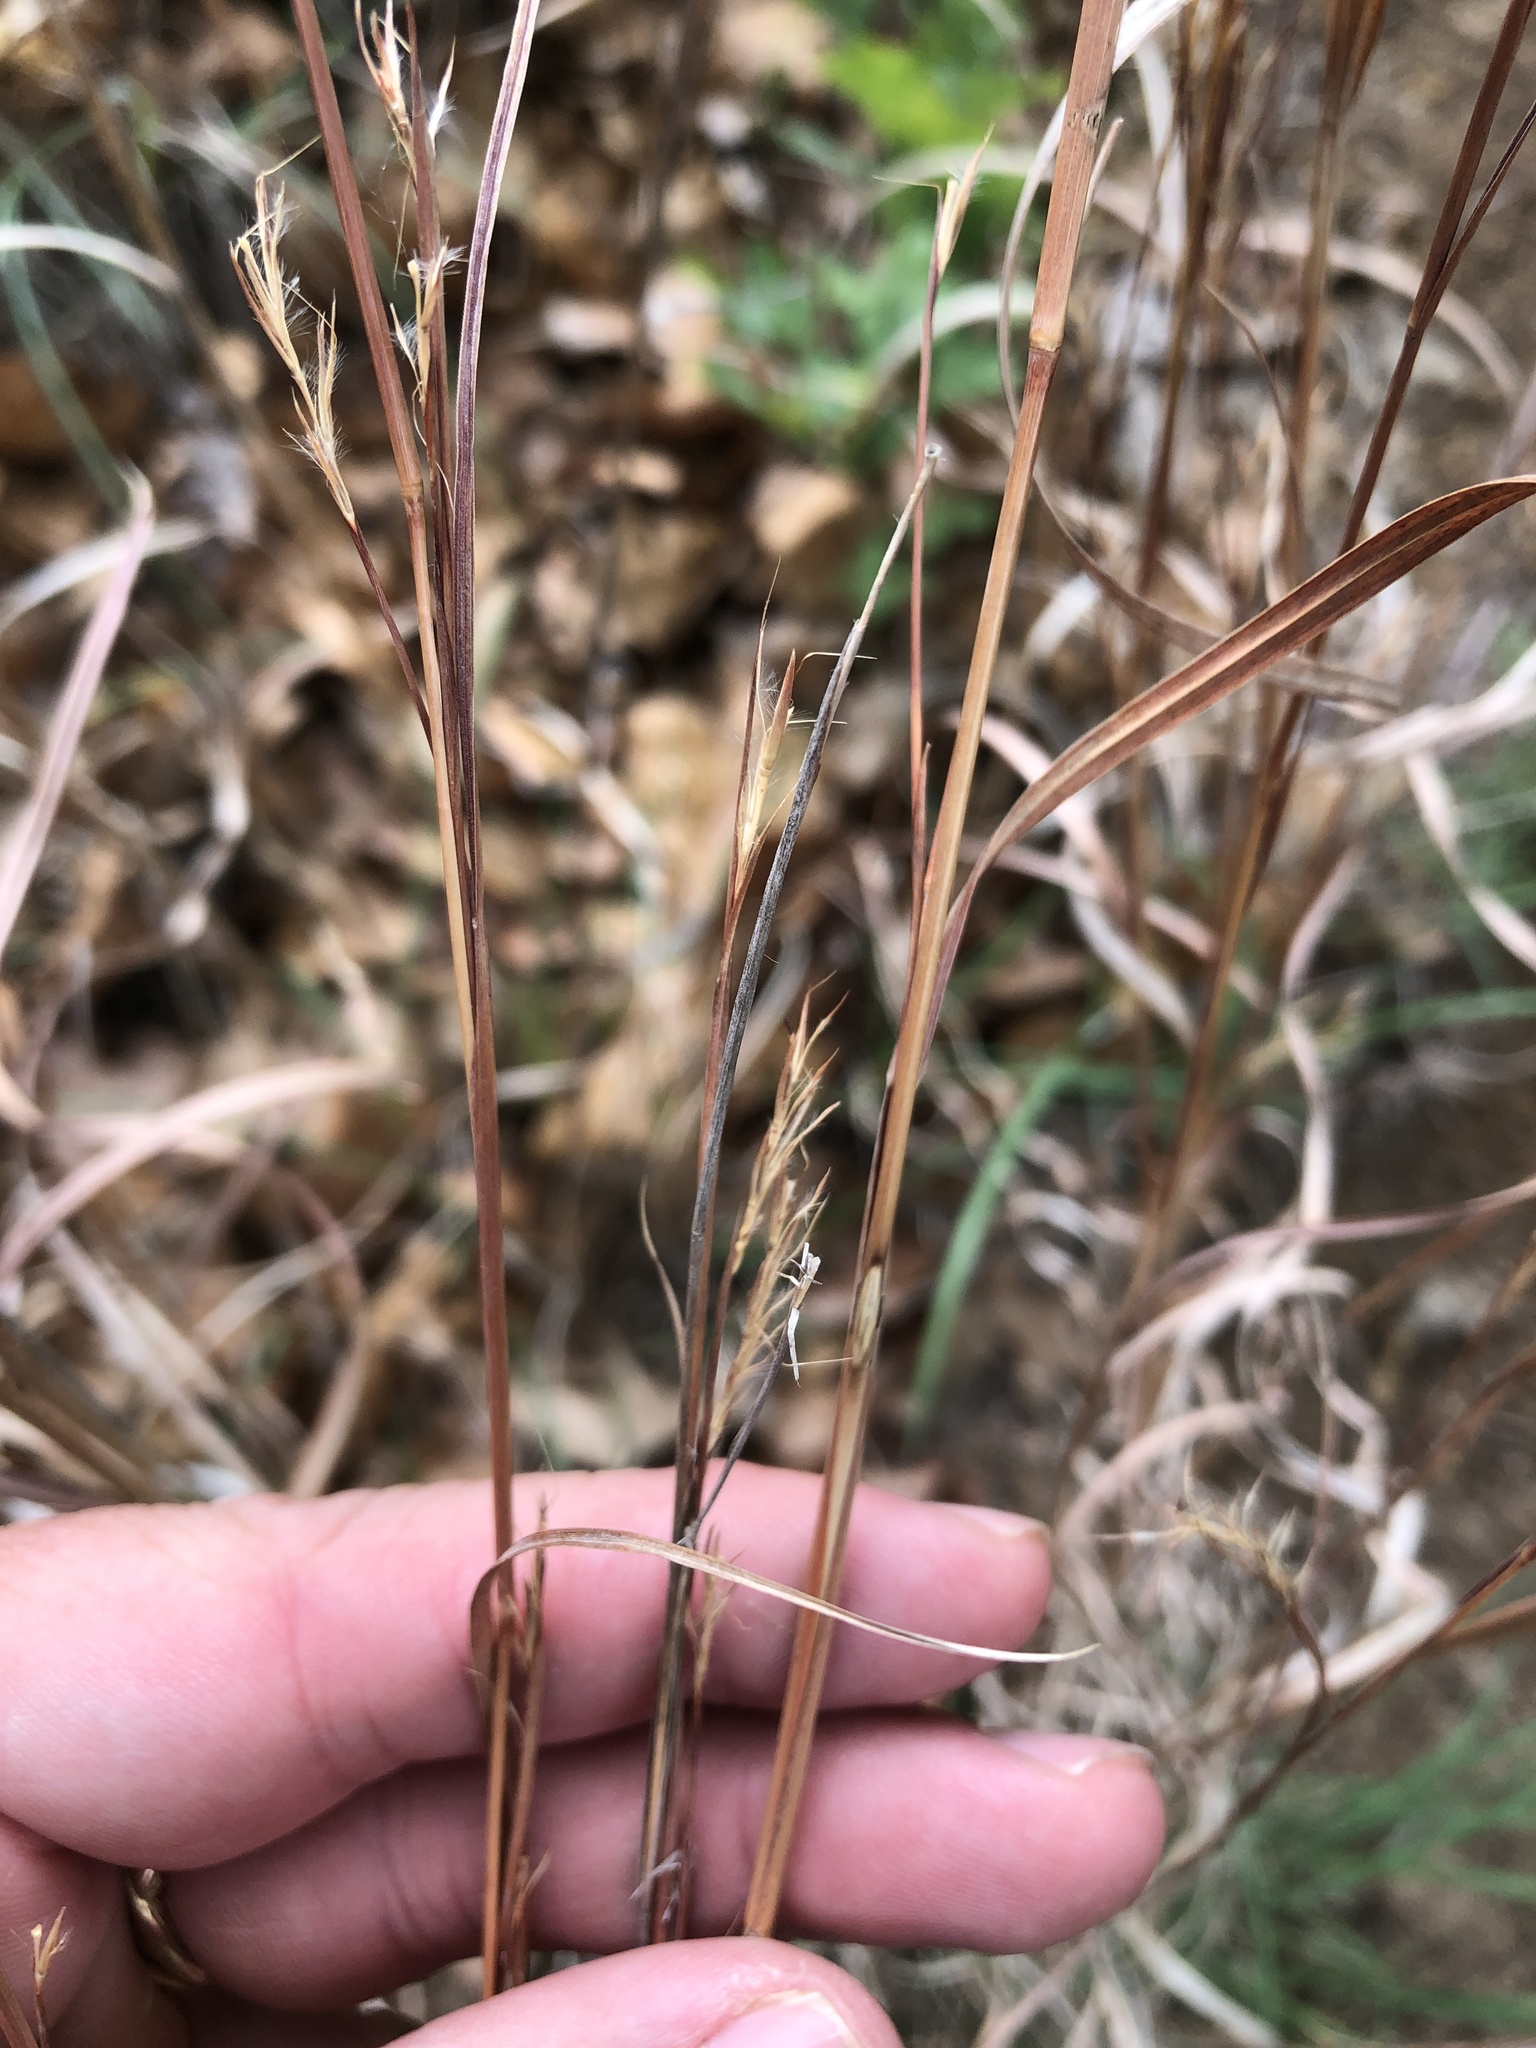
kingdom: Plantae
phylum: Tracheophyta
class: Liliopsida
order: Poales
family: Poaceae
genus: Schizachyrium
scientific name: Schizachyrium scoparium
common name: Little bluestem
